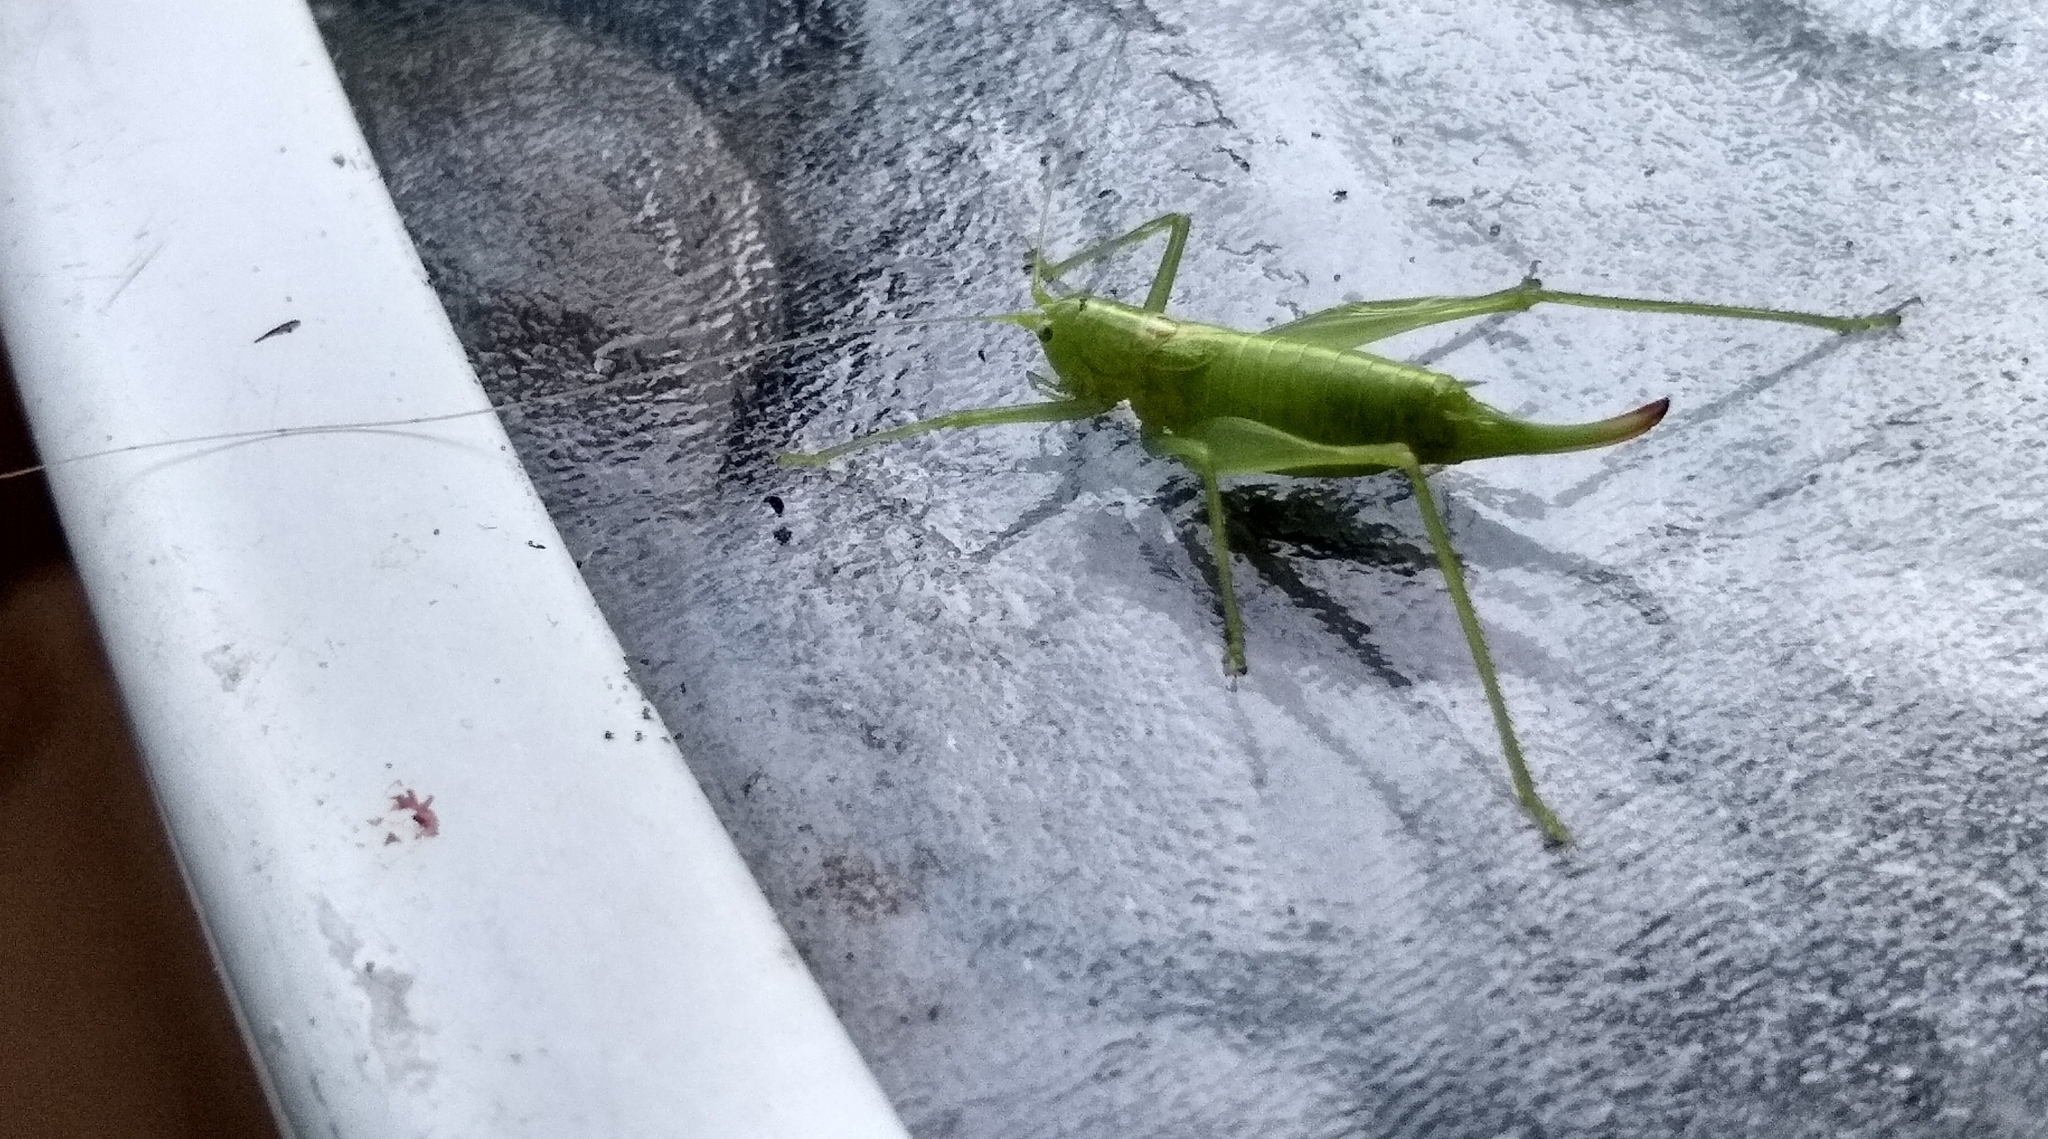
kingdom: Animalia
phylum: Arthropoda
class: Insecta
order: Orthoptera
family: Tettigoniidae
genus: Meconema
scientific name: Meconema meridionale
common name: Southern oak bush-cricket
